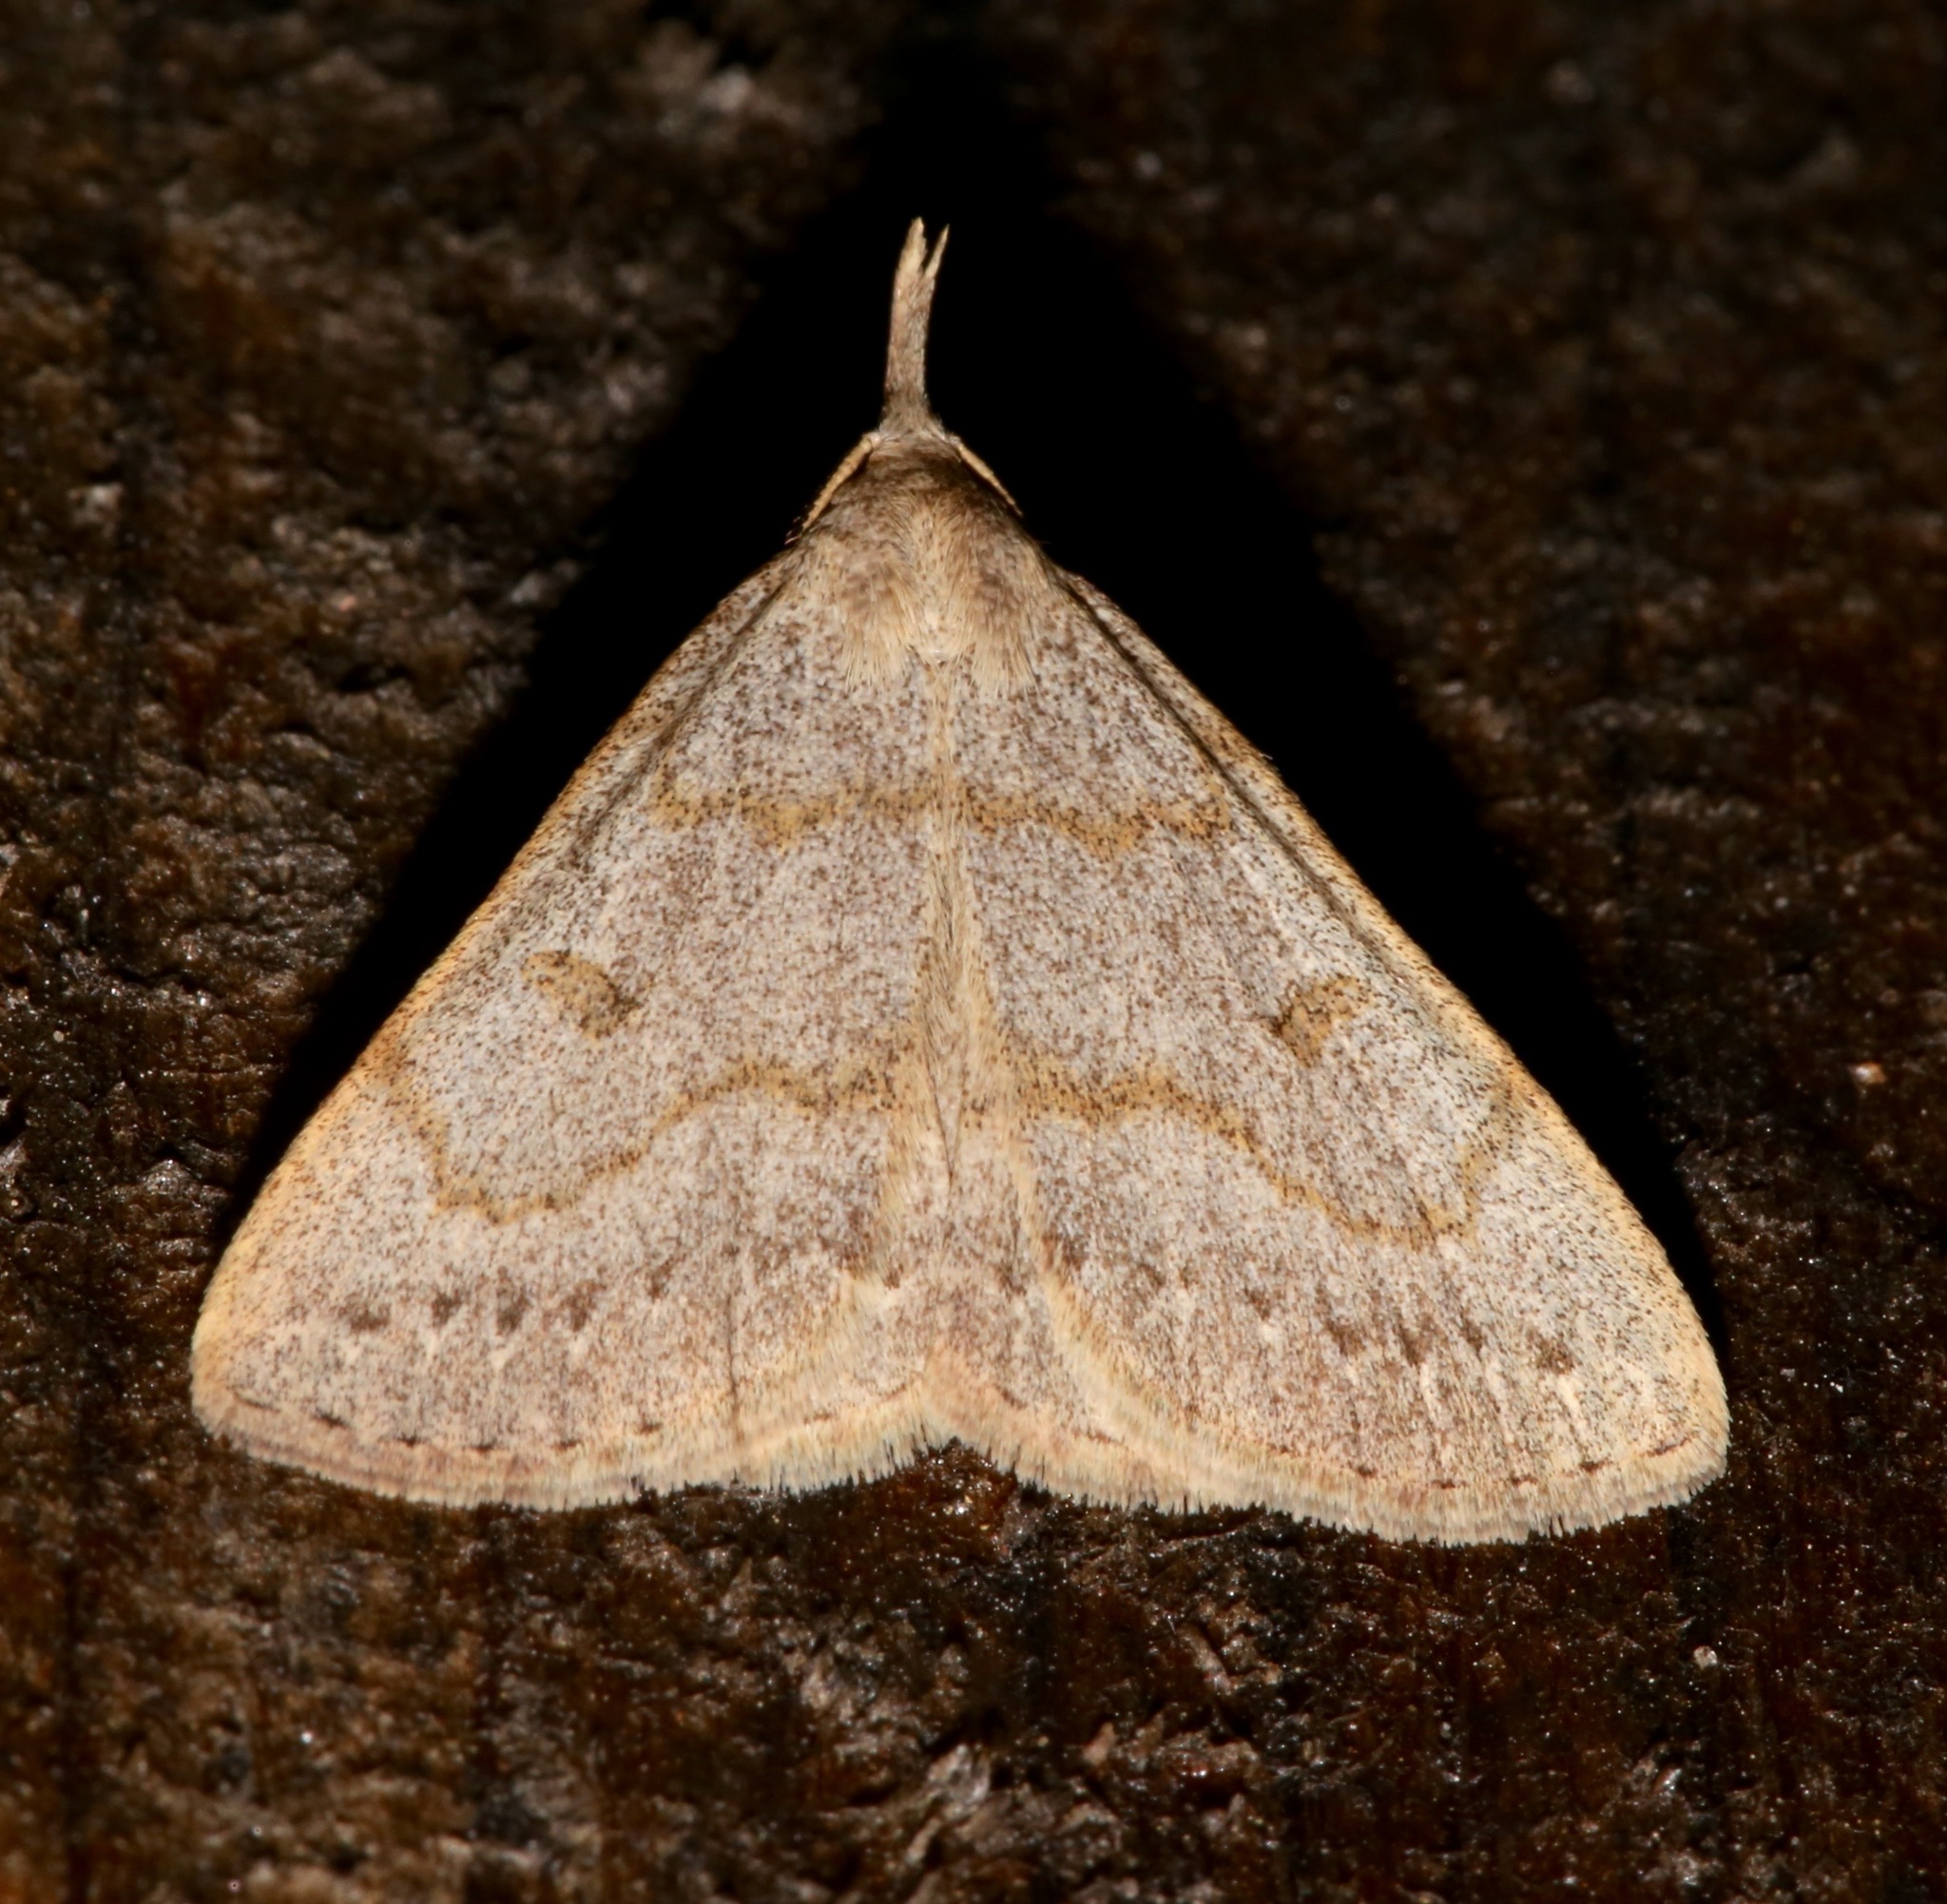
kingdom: Animalia
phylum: Arthropoda
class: Insecta
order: Lepidoptera
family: Erebidae
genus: Macrochilo
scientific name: Macrochilo morbidalis
